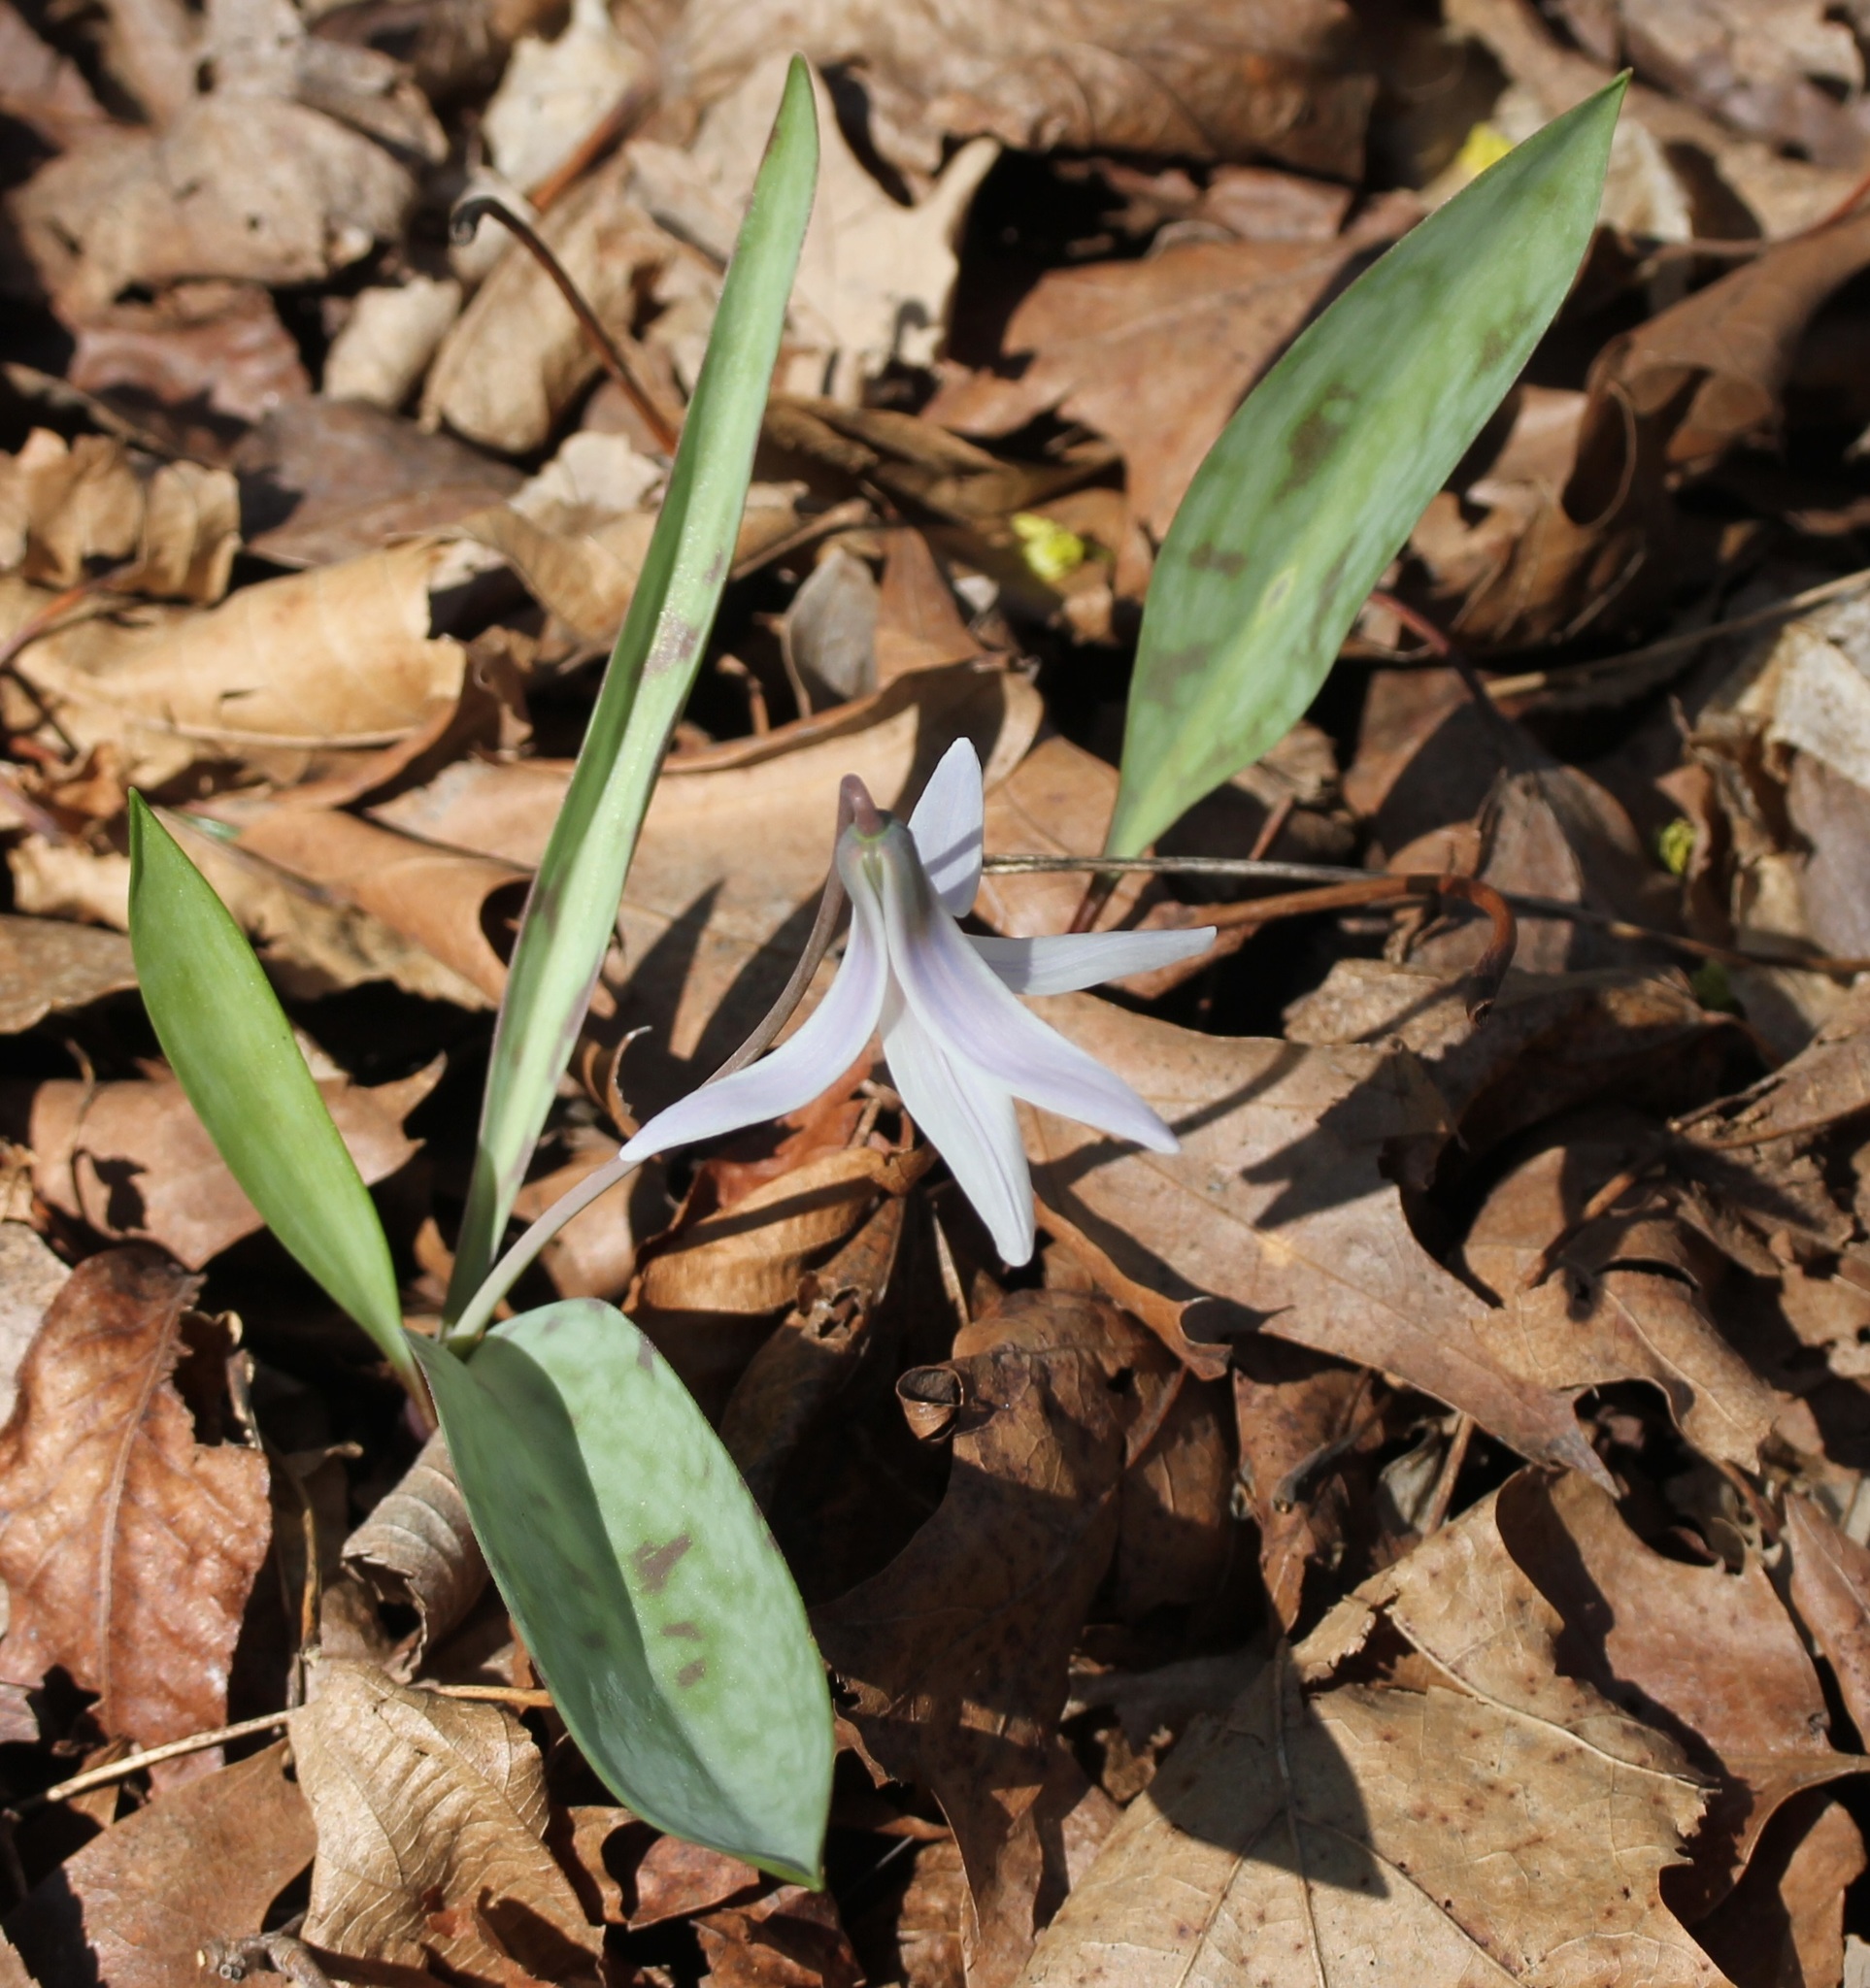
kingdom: Plantae
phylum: Tracheophyta
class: Liliopsida
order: Liliales
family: Liliaceae
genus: Erythronium
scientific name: Erythronium albidum
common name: White trout-lily
